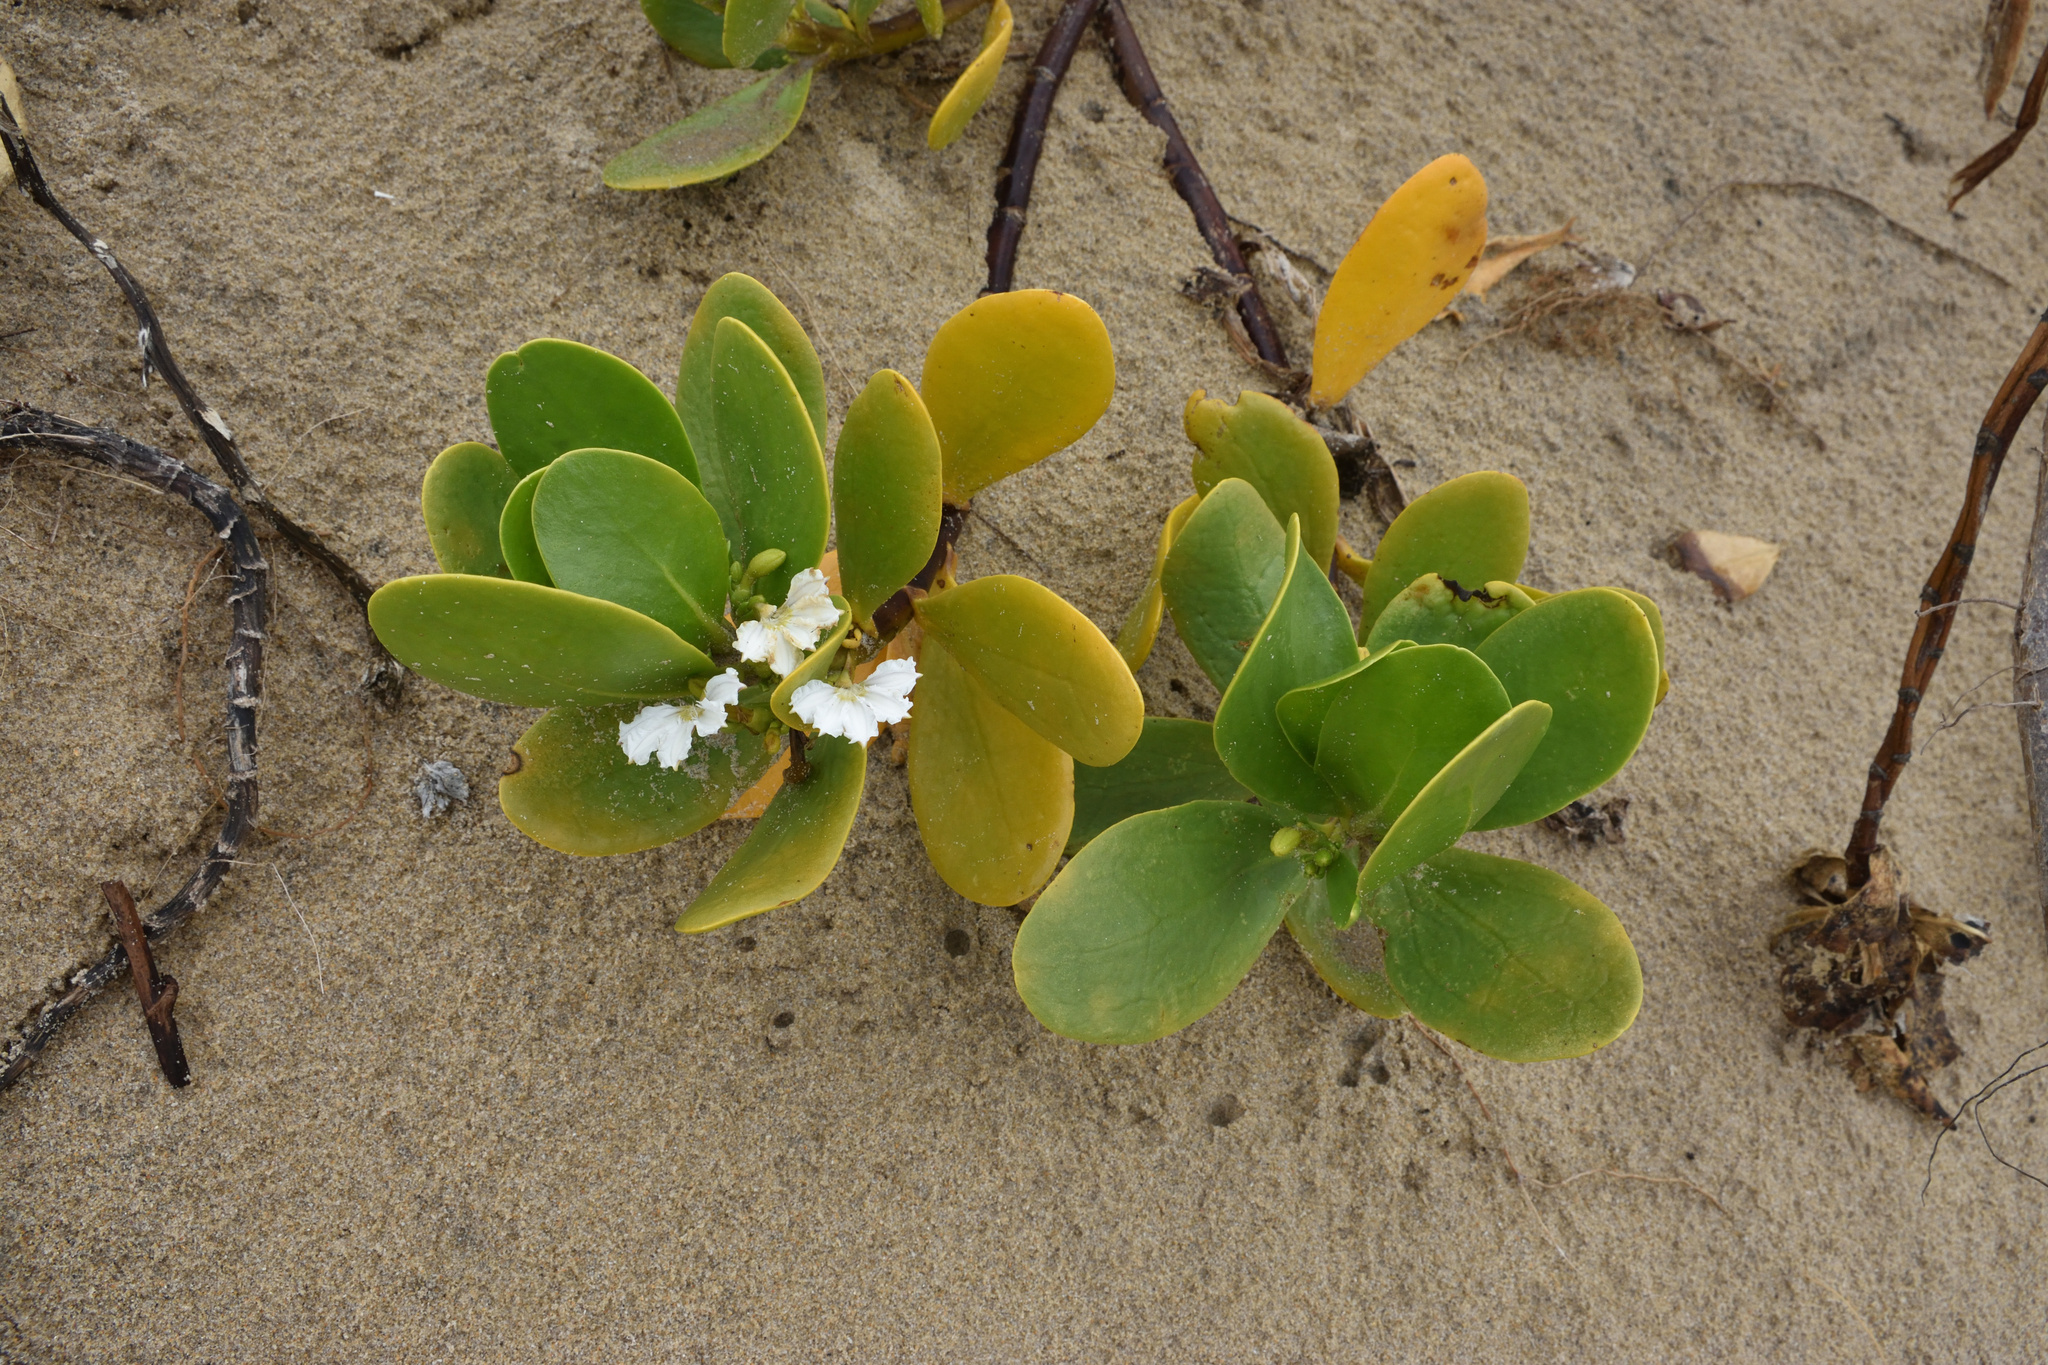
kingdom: Plantae
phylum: Tracheophyta
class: Magnoliopsida
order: Asterales
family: Goodeniaceae
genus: Scaevola
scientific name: Scaevola plumieri
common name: Gull feed
